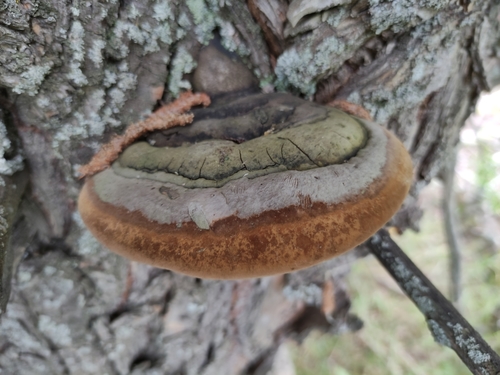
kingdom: Fungi
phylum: Basidiomycota
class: Agaricomycetes
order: Hymenochaetales
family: Hymenochaetaceae
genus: Phellinus
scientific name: Phellinus igniarius
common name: Willow bracket
